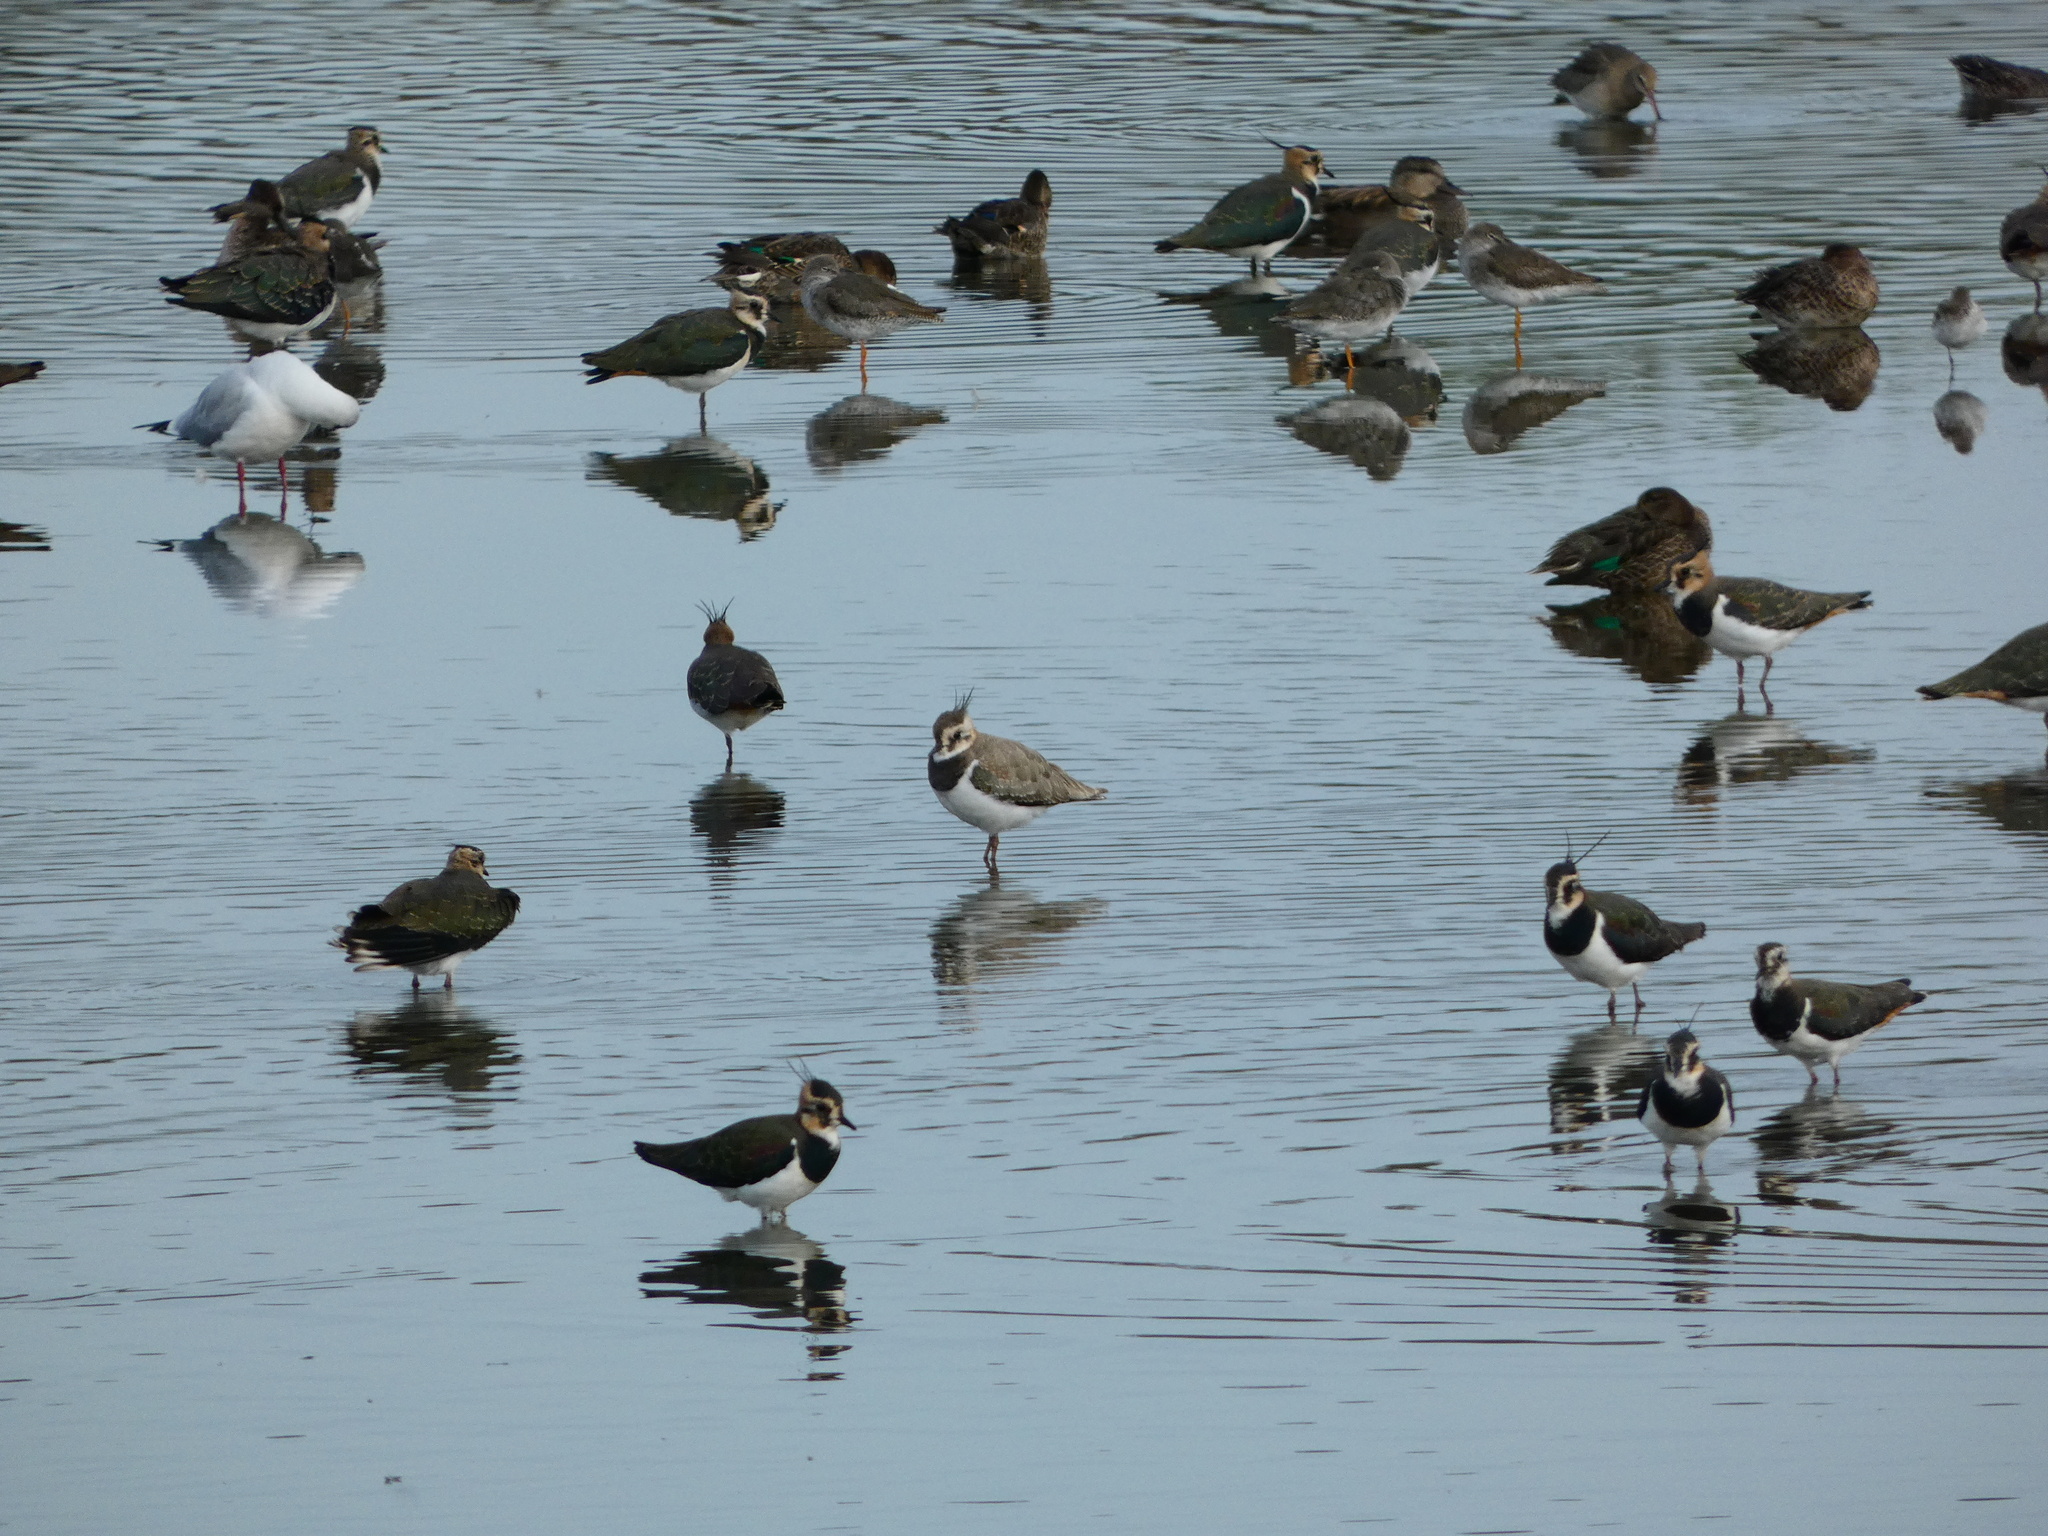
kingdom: Animalia
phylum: Chordata
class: Aves
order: Charadriiformes
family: Charadriidae
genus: Vanellus
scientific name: Vanellus vanellus
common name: Northern lapwing
